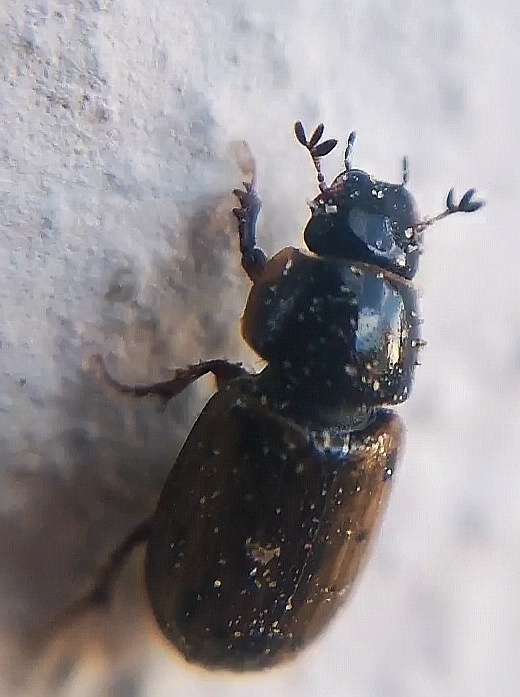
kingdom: Animalia
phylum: Arthropoda
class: Insecta
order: Coleoptera
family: Scarabaeidae
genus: Chilothorax
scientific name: Chilothorax conspurcatus
